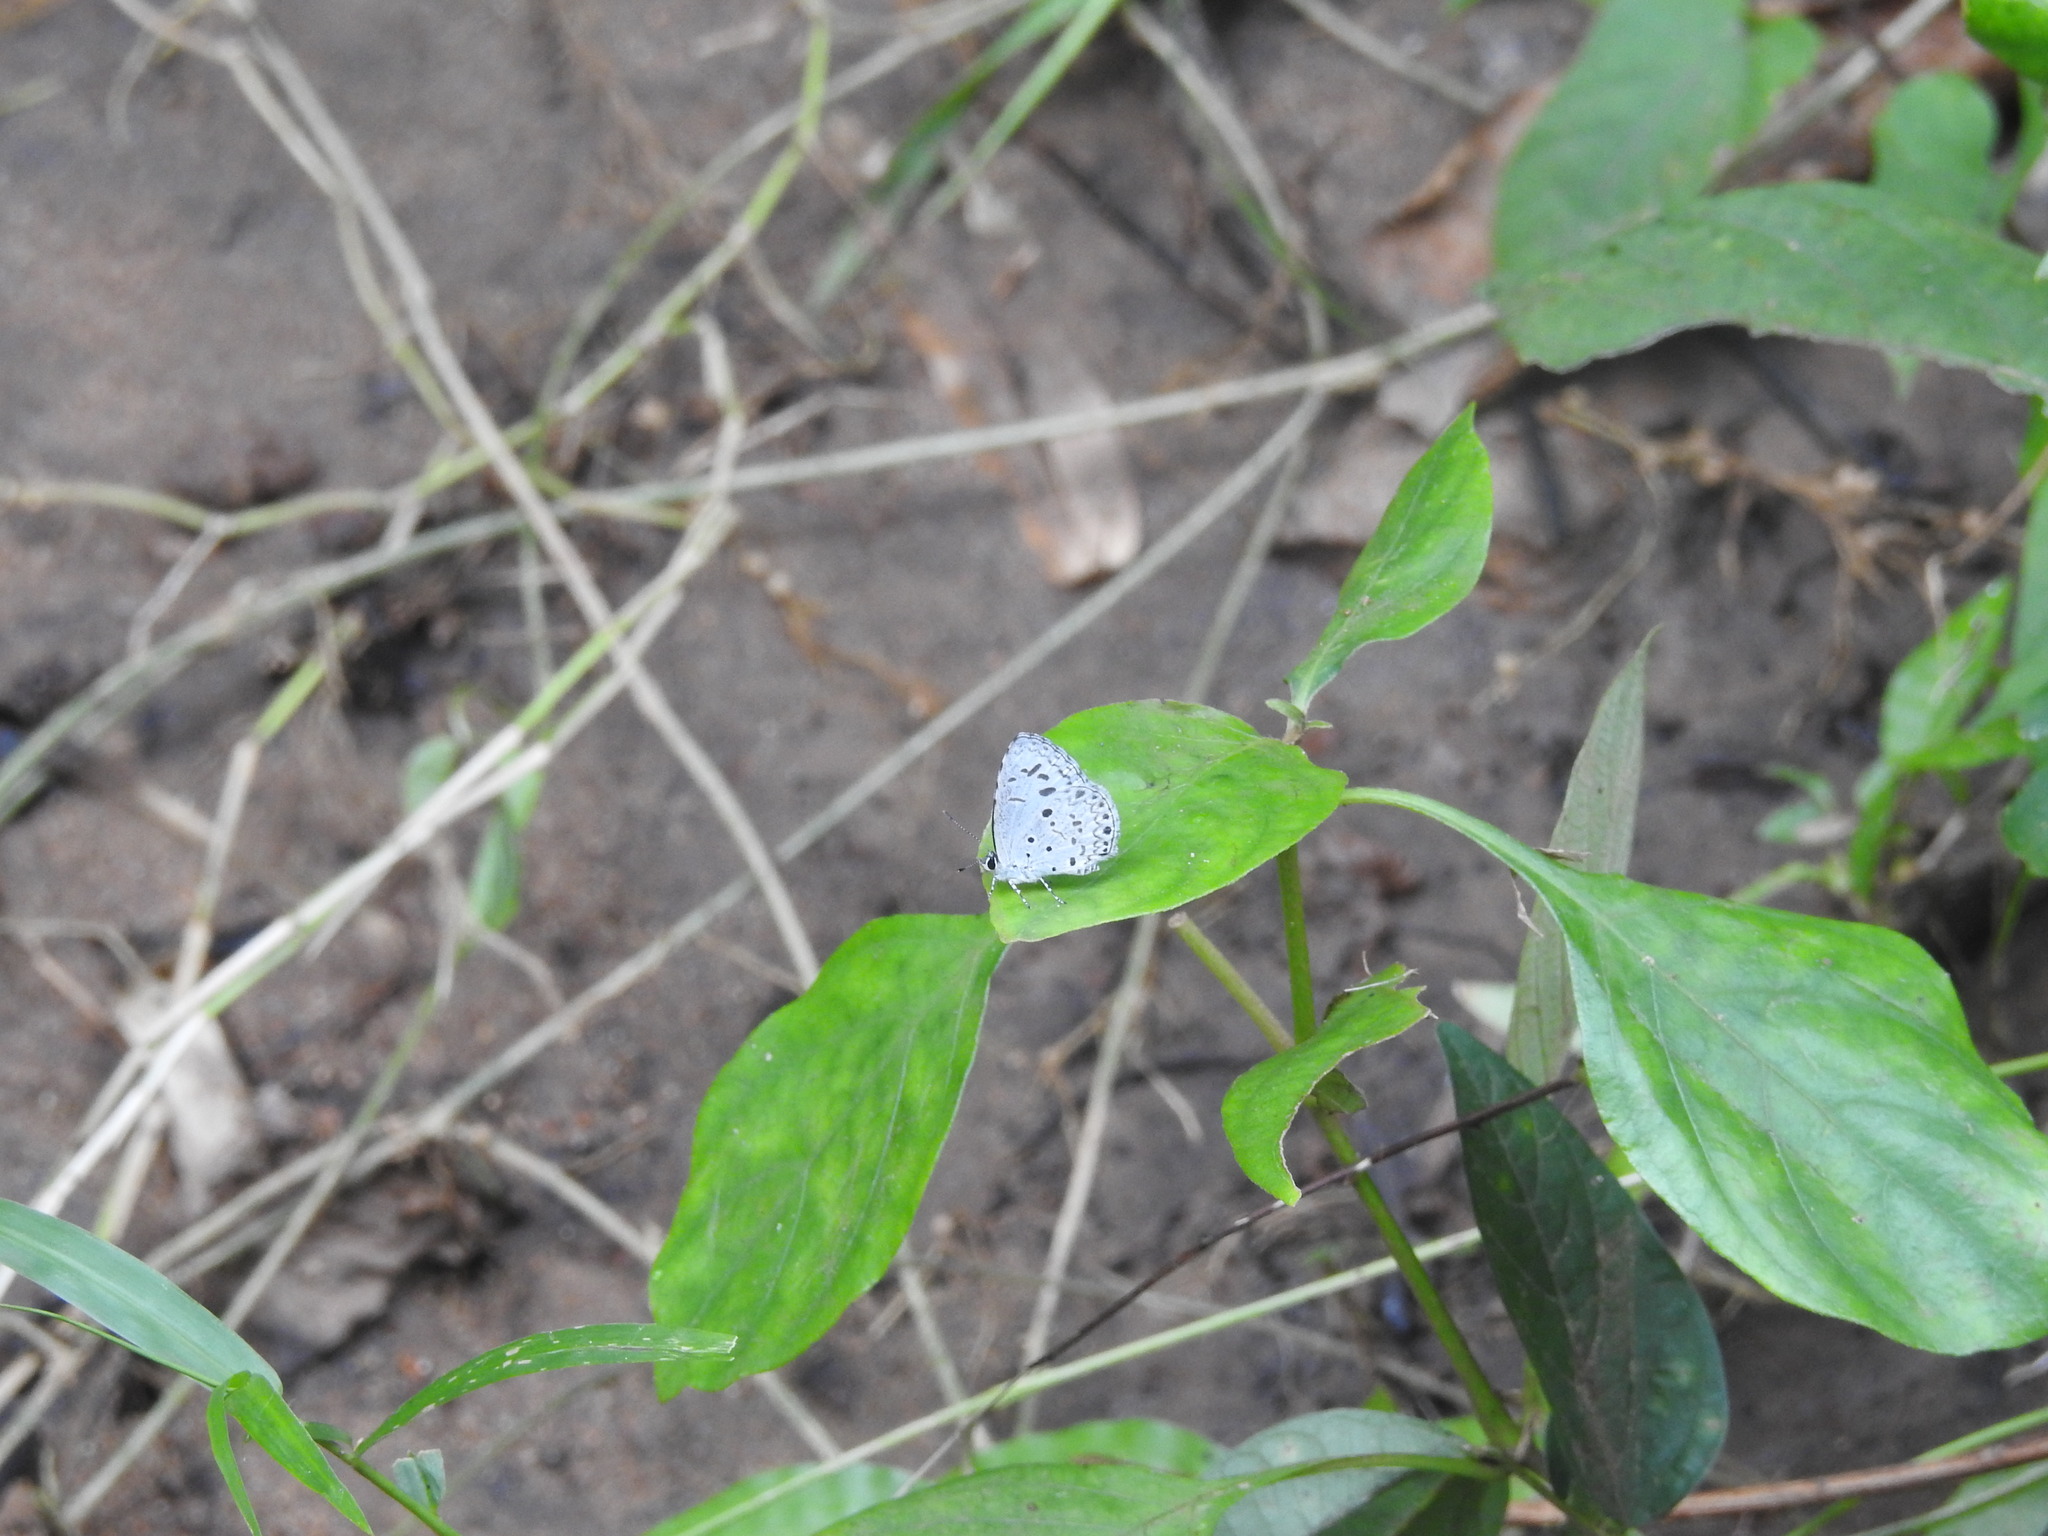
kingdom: Animalia
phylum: Arthropoda
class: Insecta
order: Lepidoptera
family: Lycaenidae
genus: Acytolepis
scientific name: Acytolepis puspa
